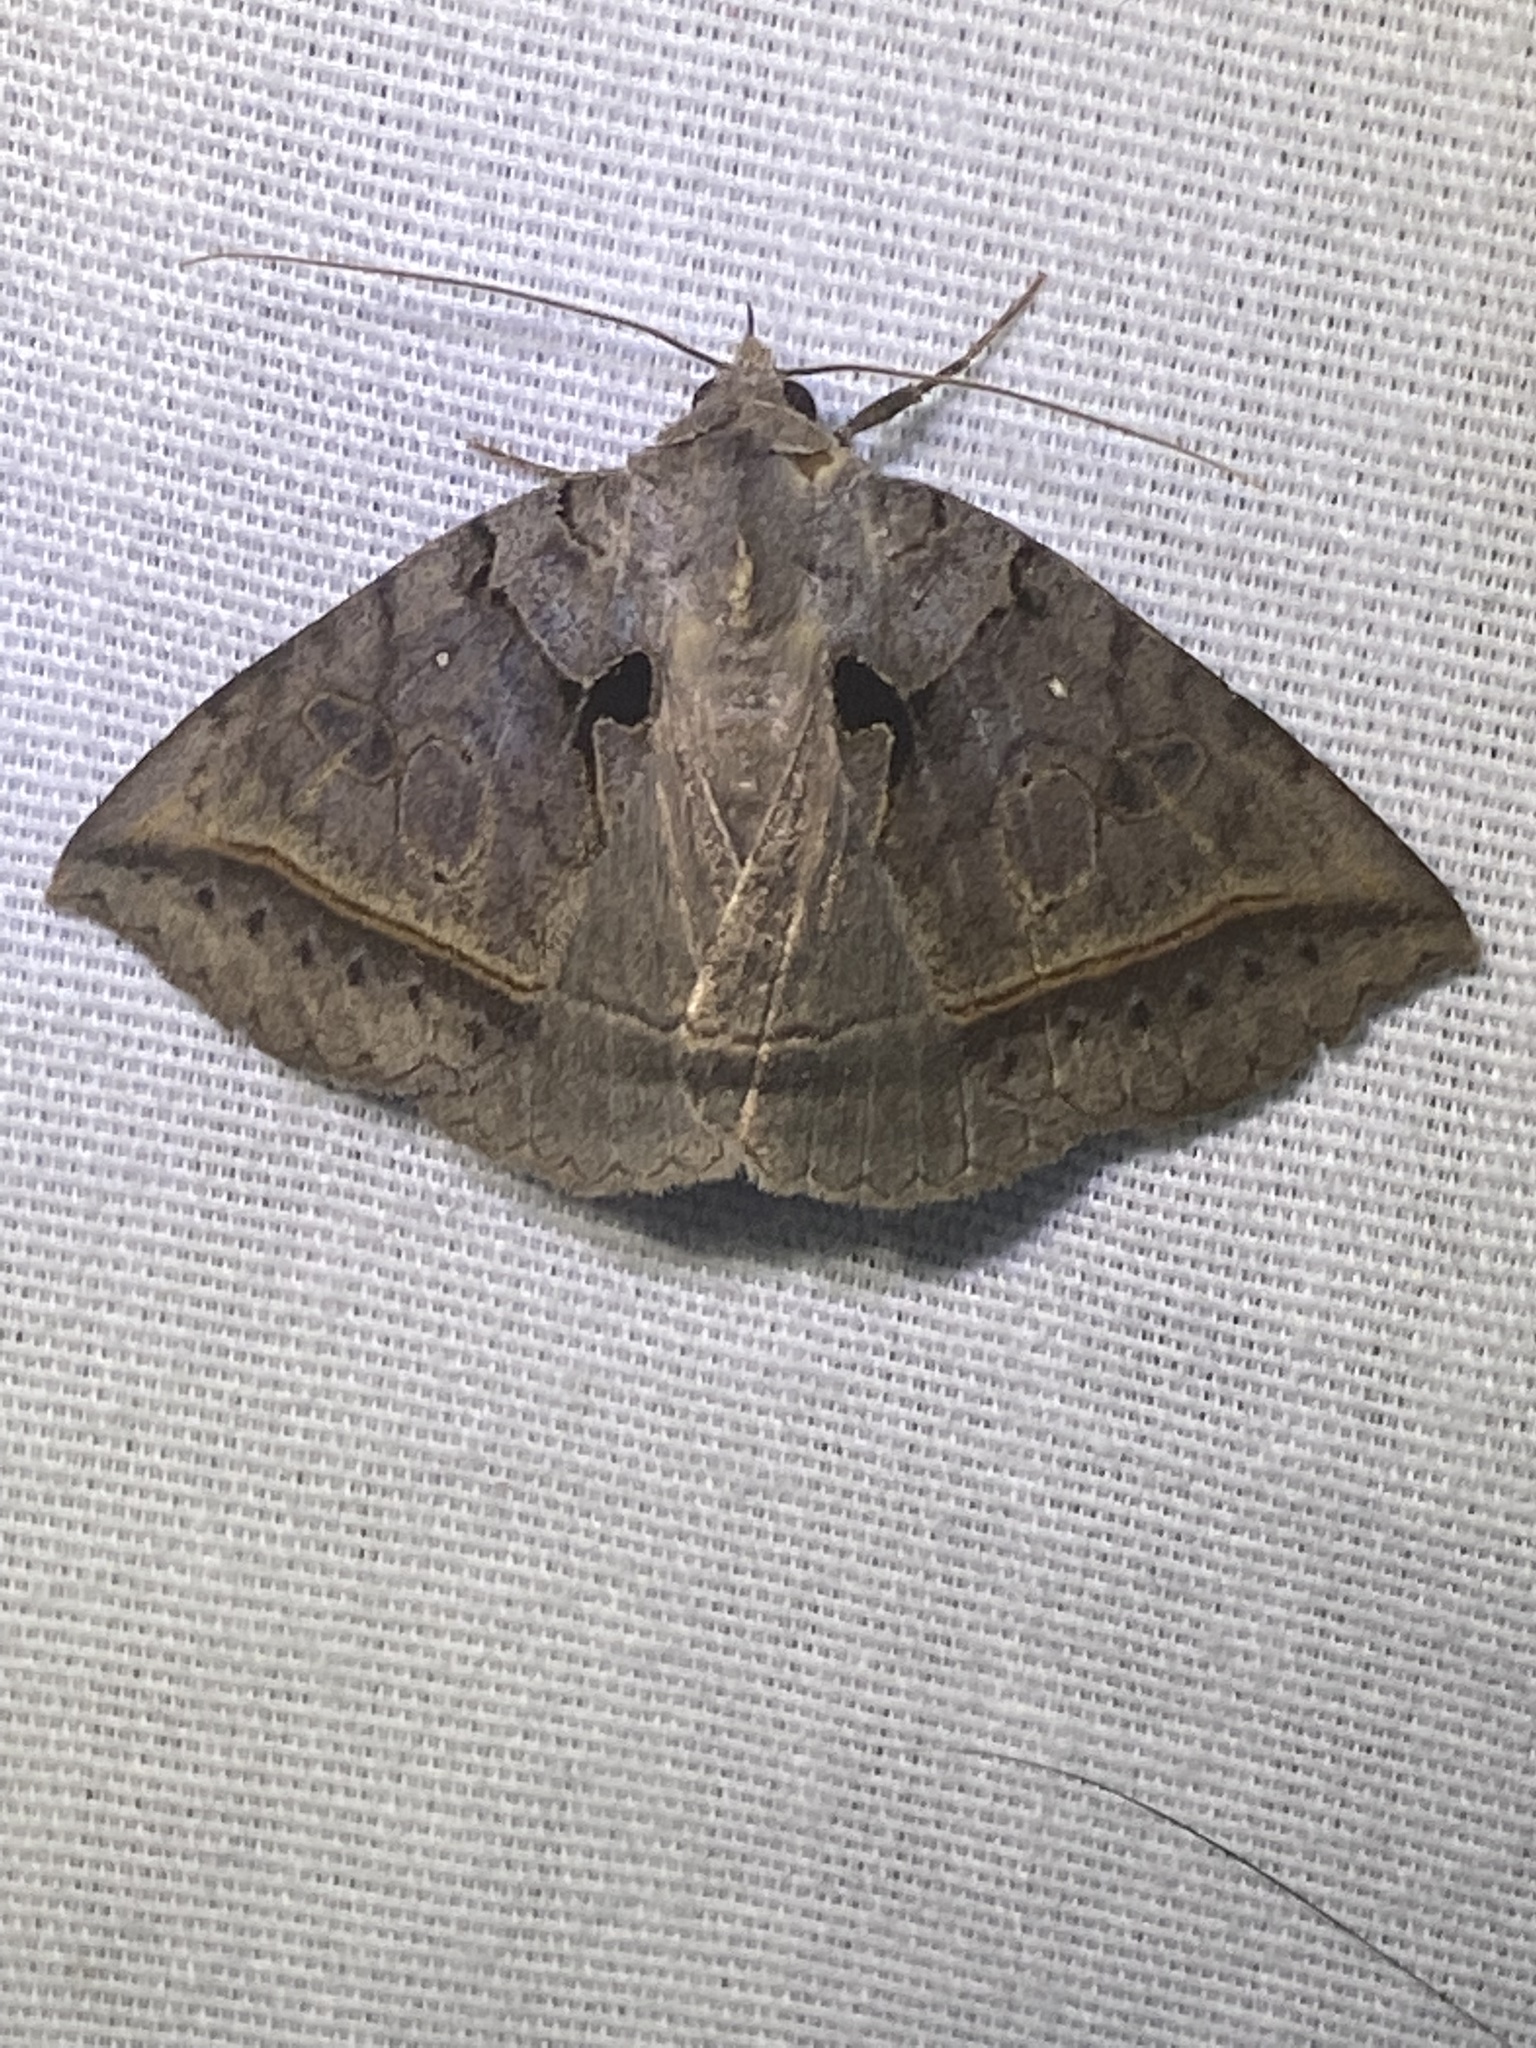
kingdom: Animalia
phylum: Arthropoda
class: Insecta
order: Lepidoptera
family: Erebidae
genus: Celiptera
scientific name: Celiptera frustulum
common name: Black bit moth
